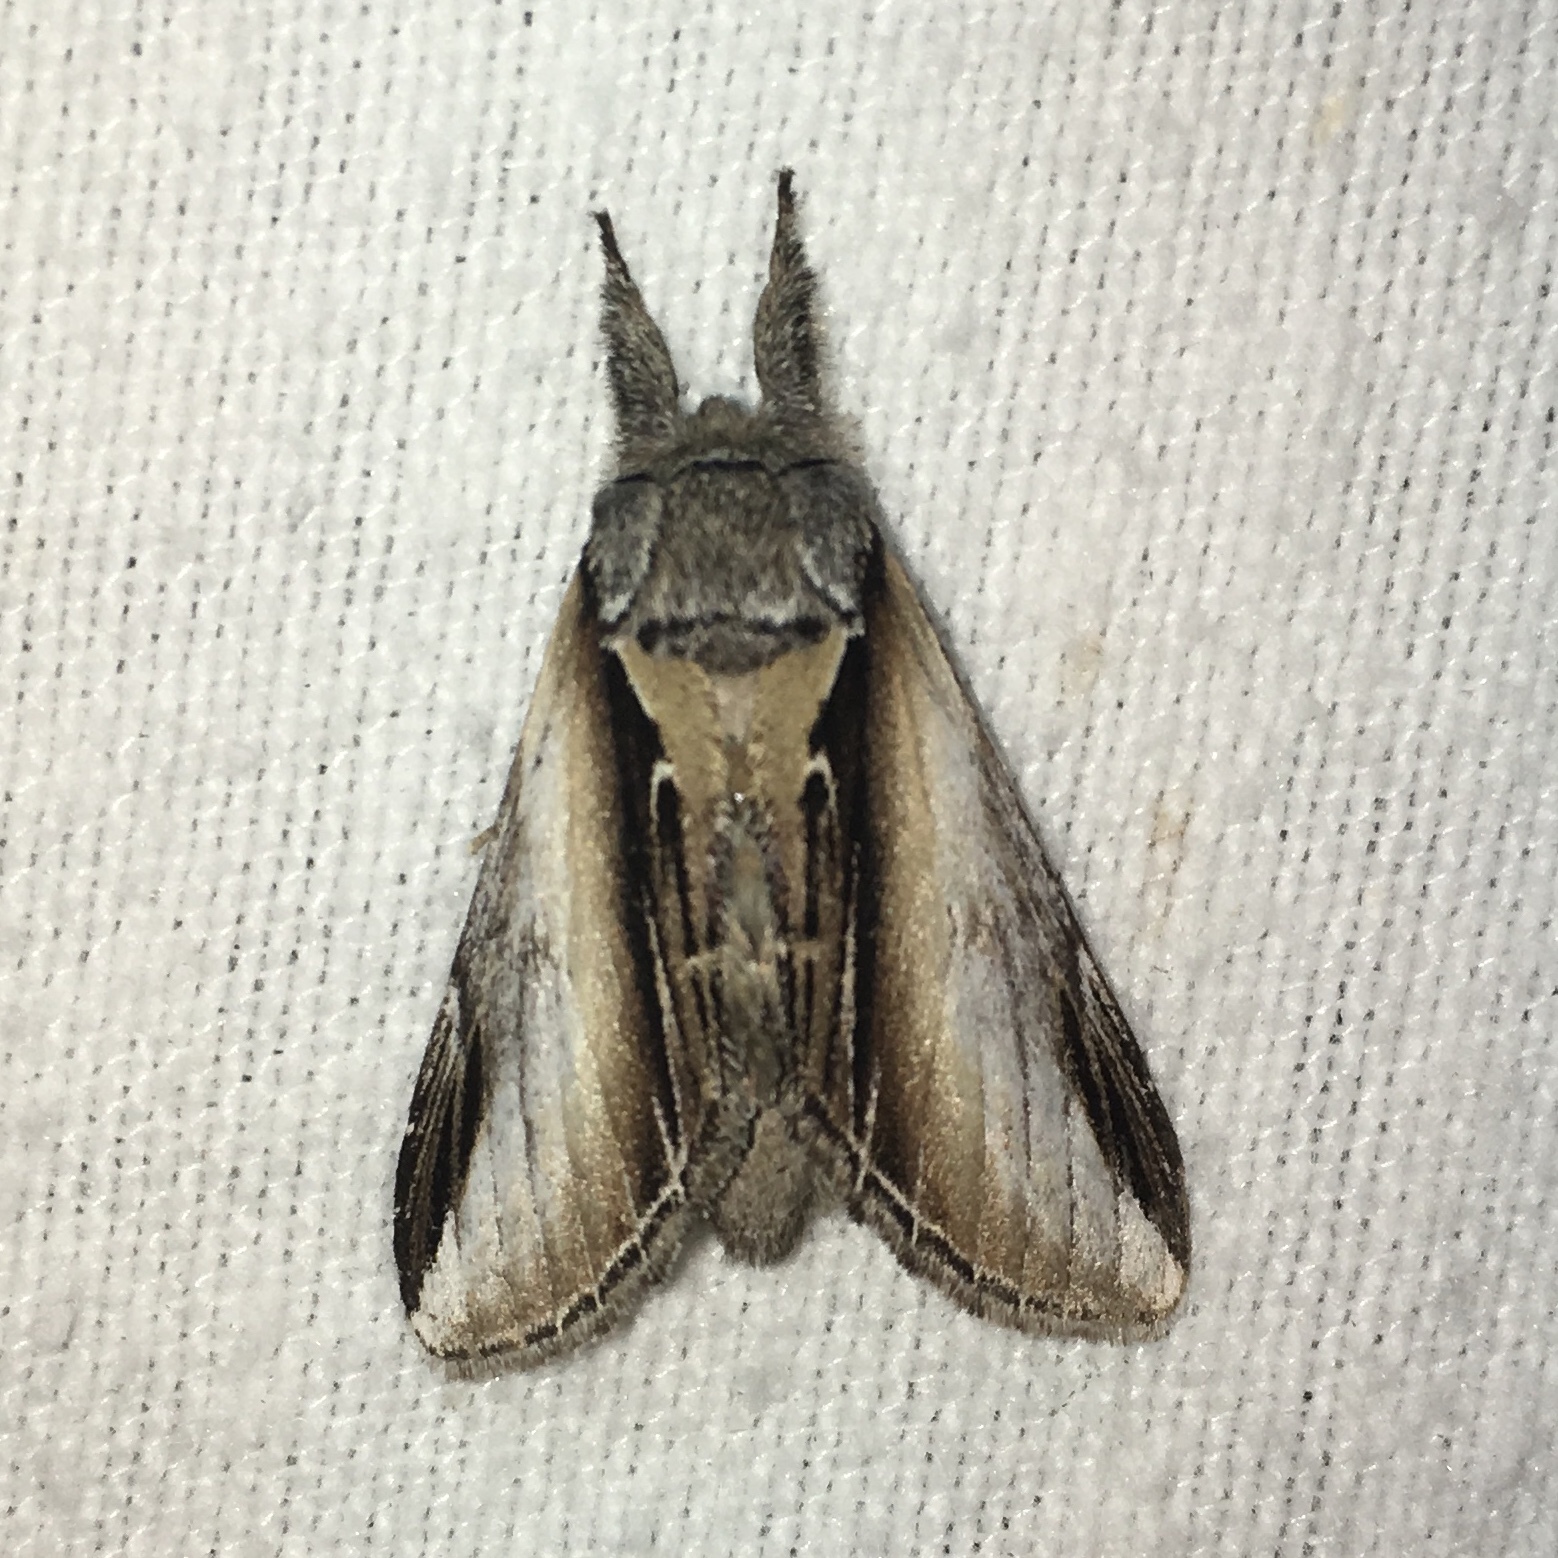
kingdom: Animalia
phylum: Arthropoda
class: Insecta
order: Lepidoptera
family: Notodontidae
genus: Pheosia
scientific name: Pheosia rimosa
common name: Black-rimmed prominent
